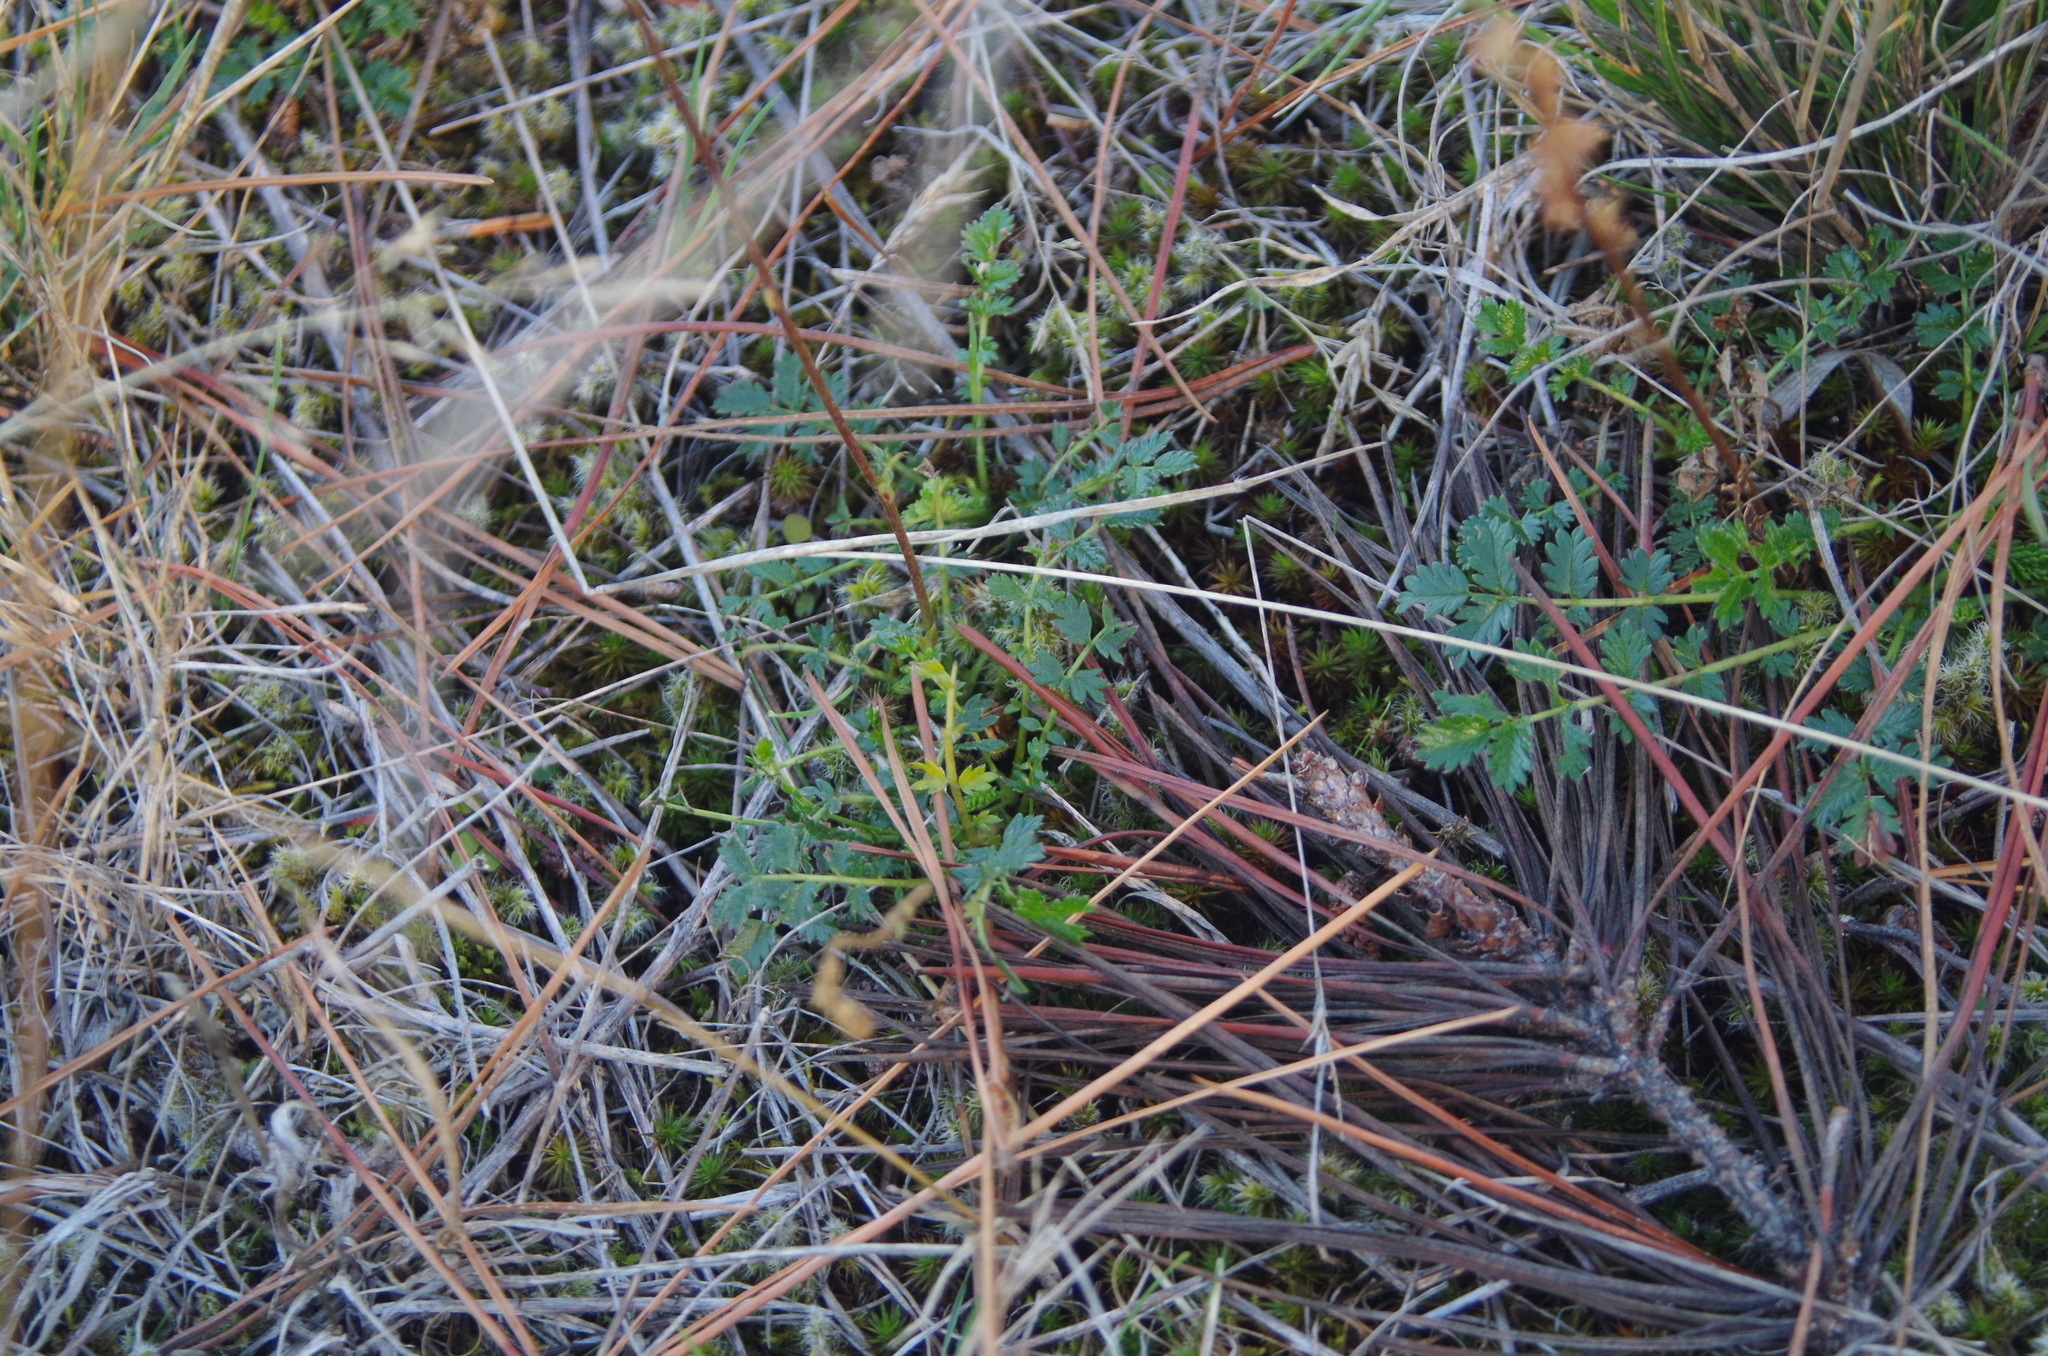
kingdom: Plantae
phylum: Tracheophyta
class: Magnoliopsida
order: Rosales
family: Rosaceae
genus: Acaena
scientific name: Acaena agnipila
